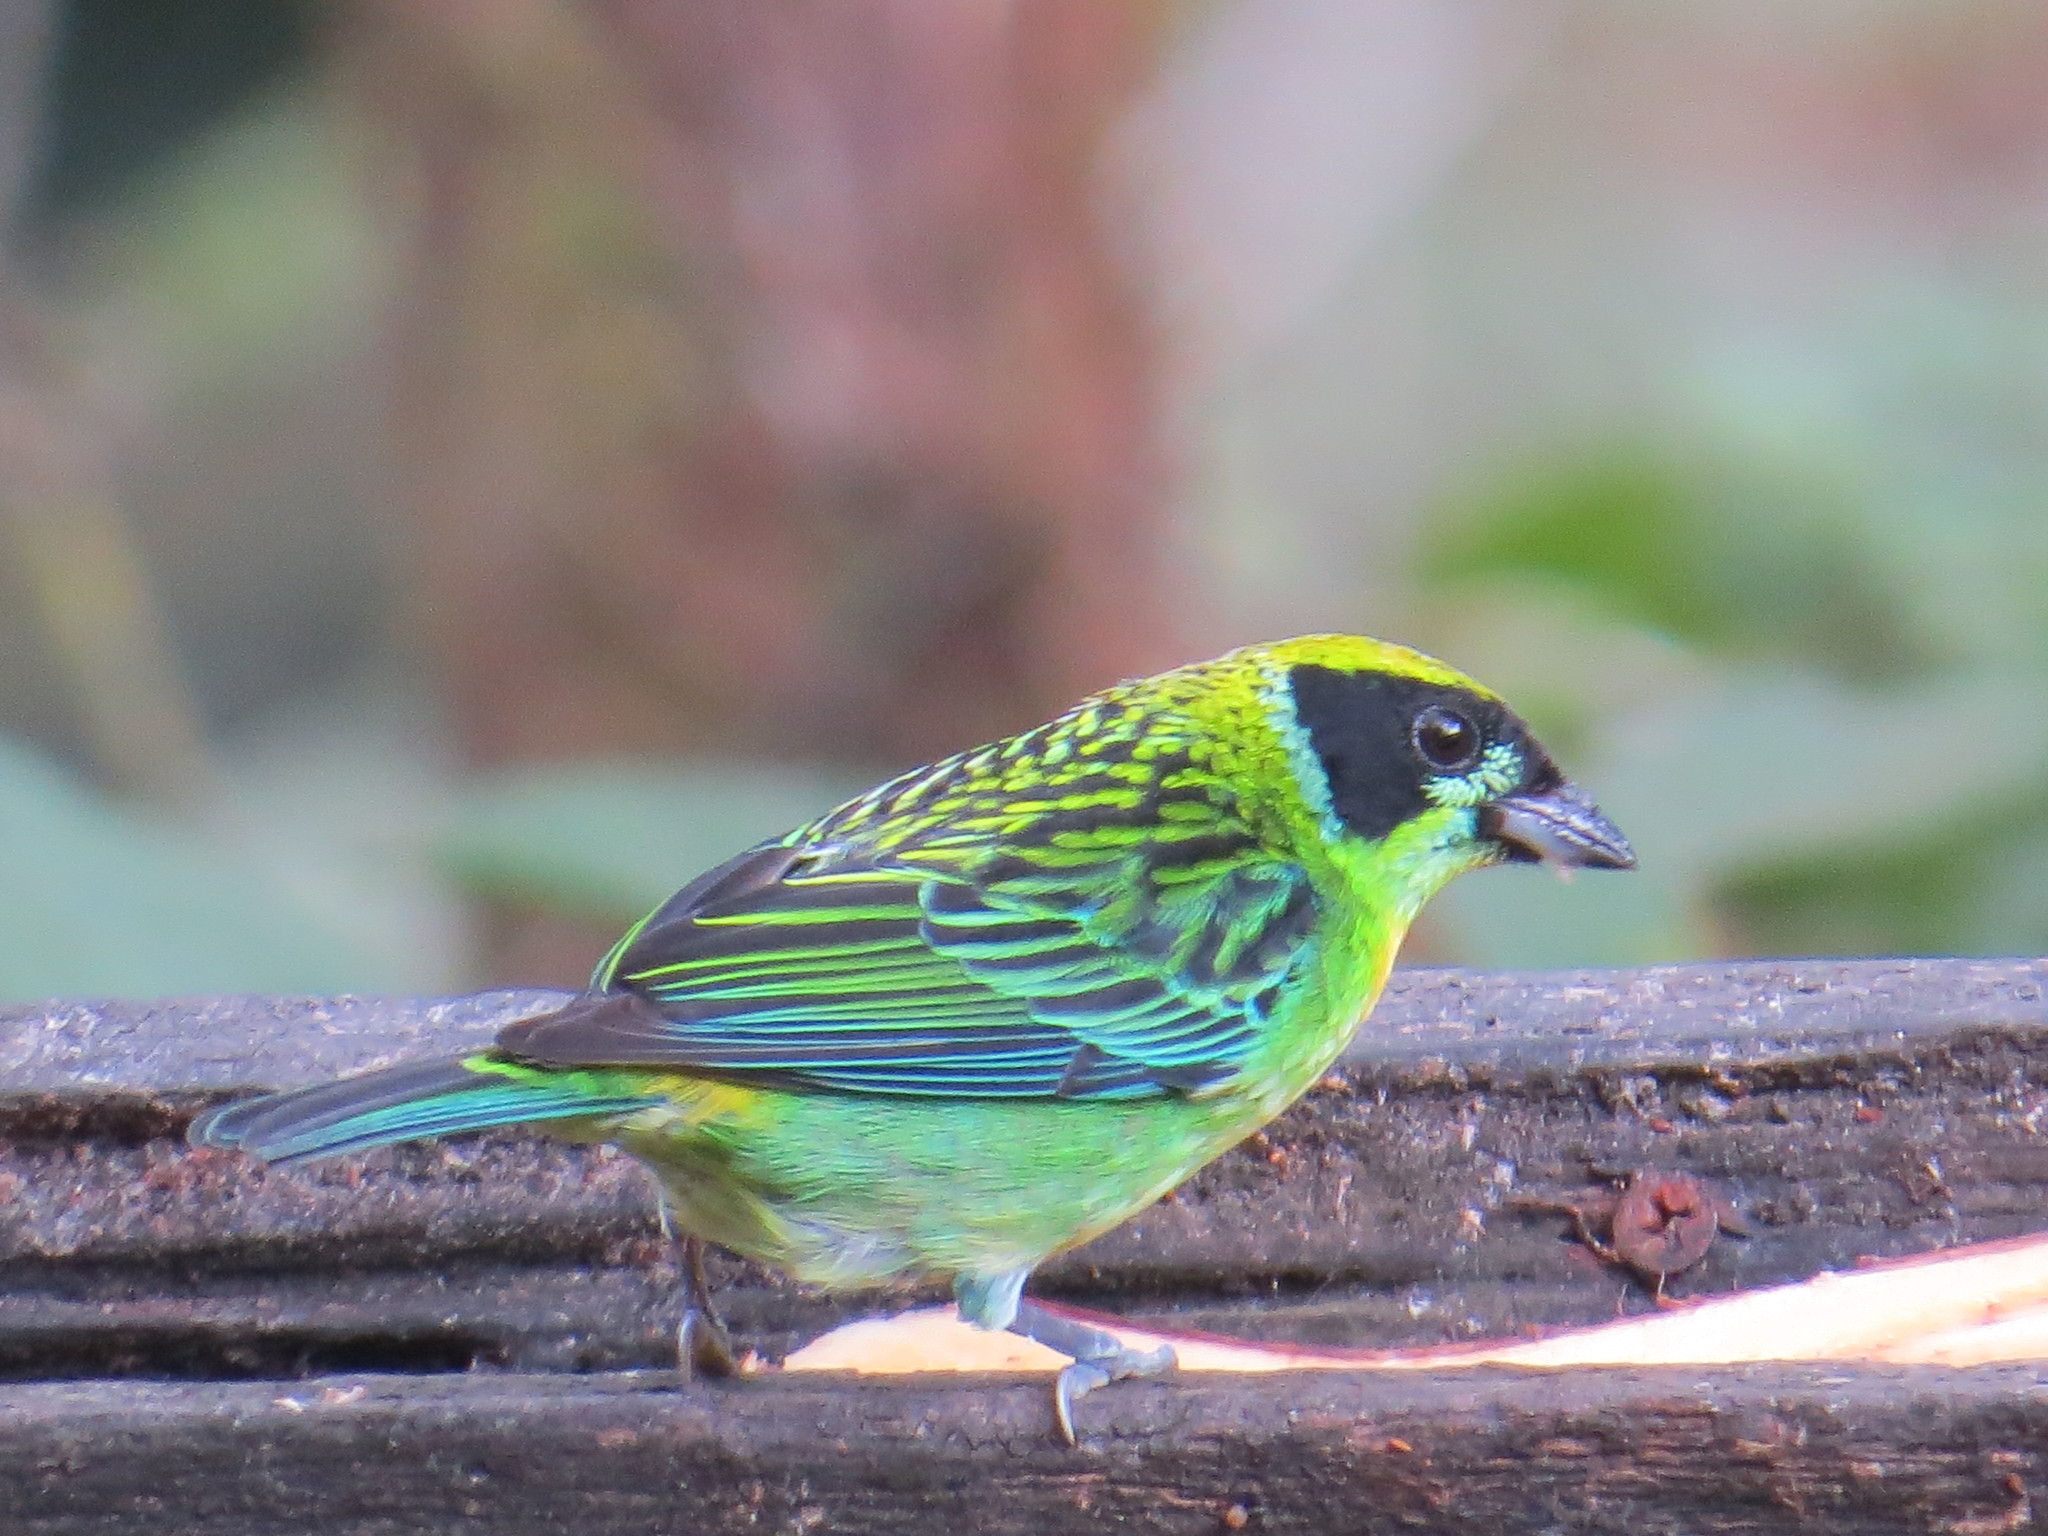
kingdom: Animalia
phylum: Chordata
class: Aves
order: Passeriformes
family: Thraupidae
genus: Tangara
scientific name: Tangara schrankii
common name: Green-and-gold tanager
